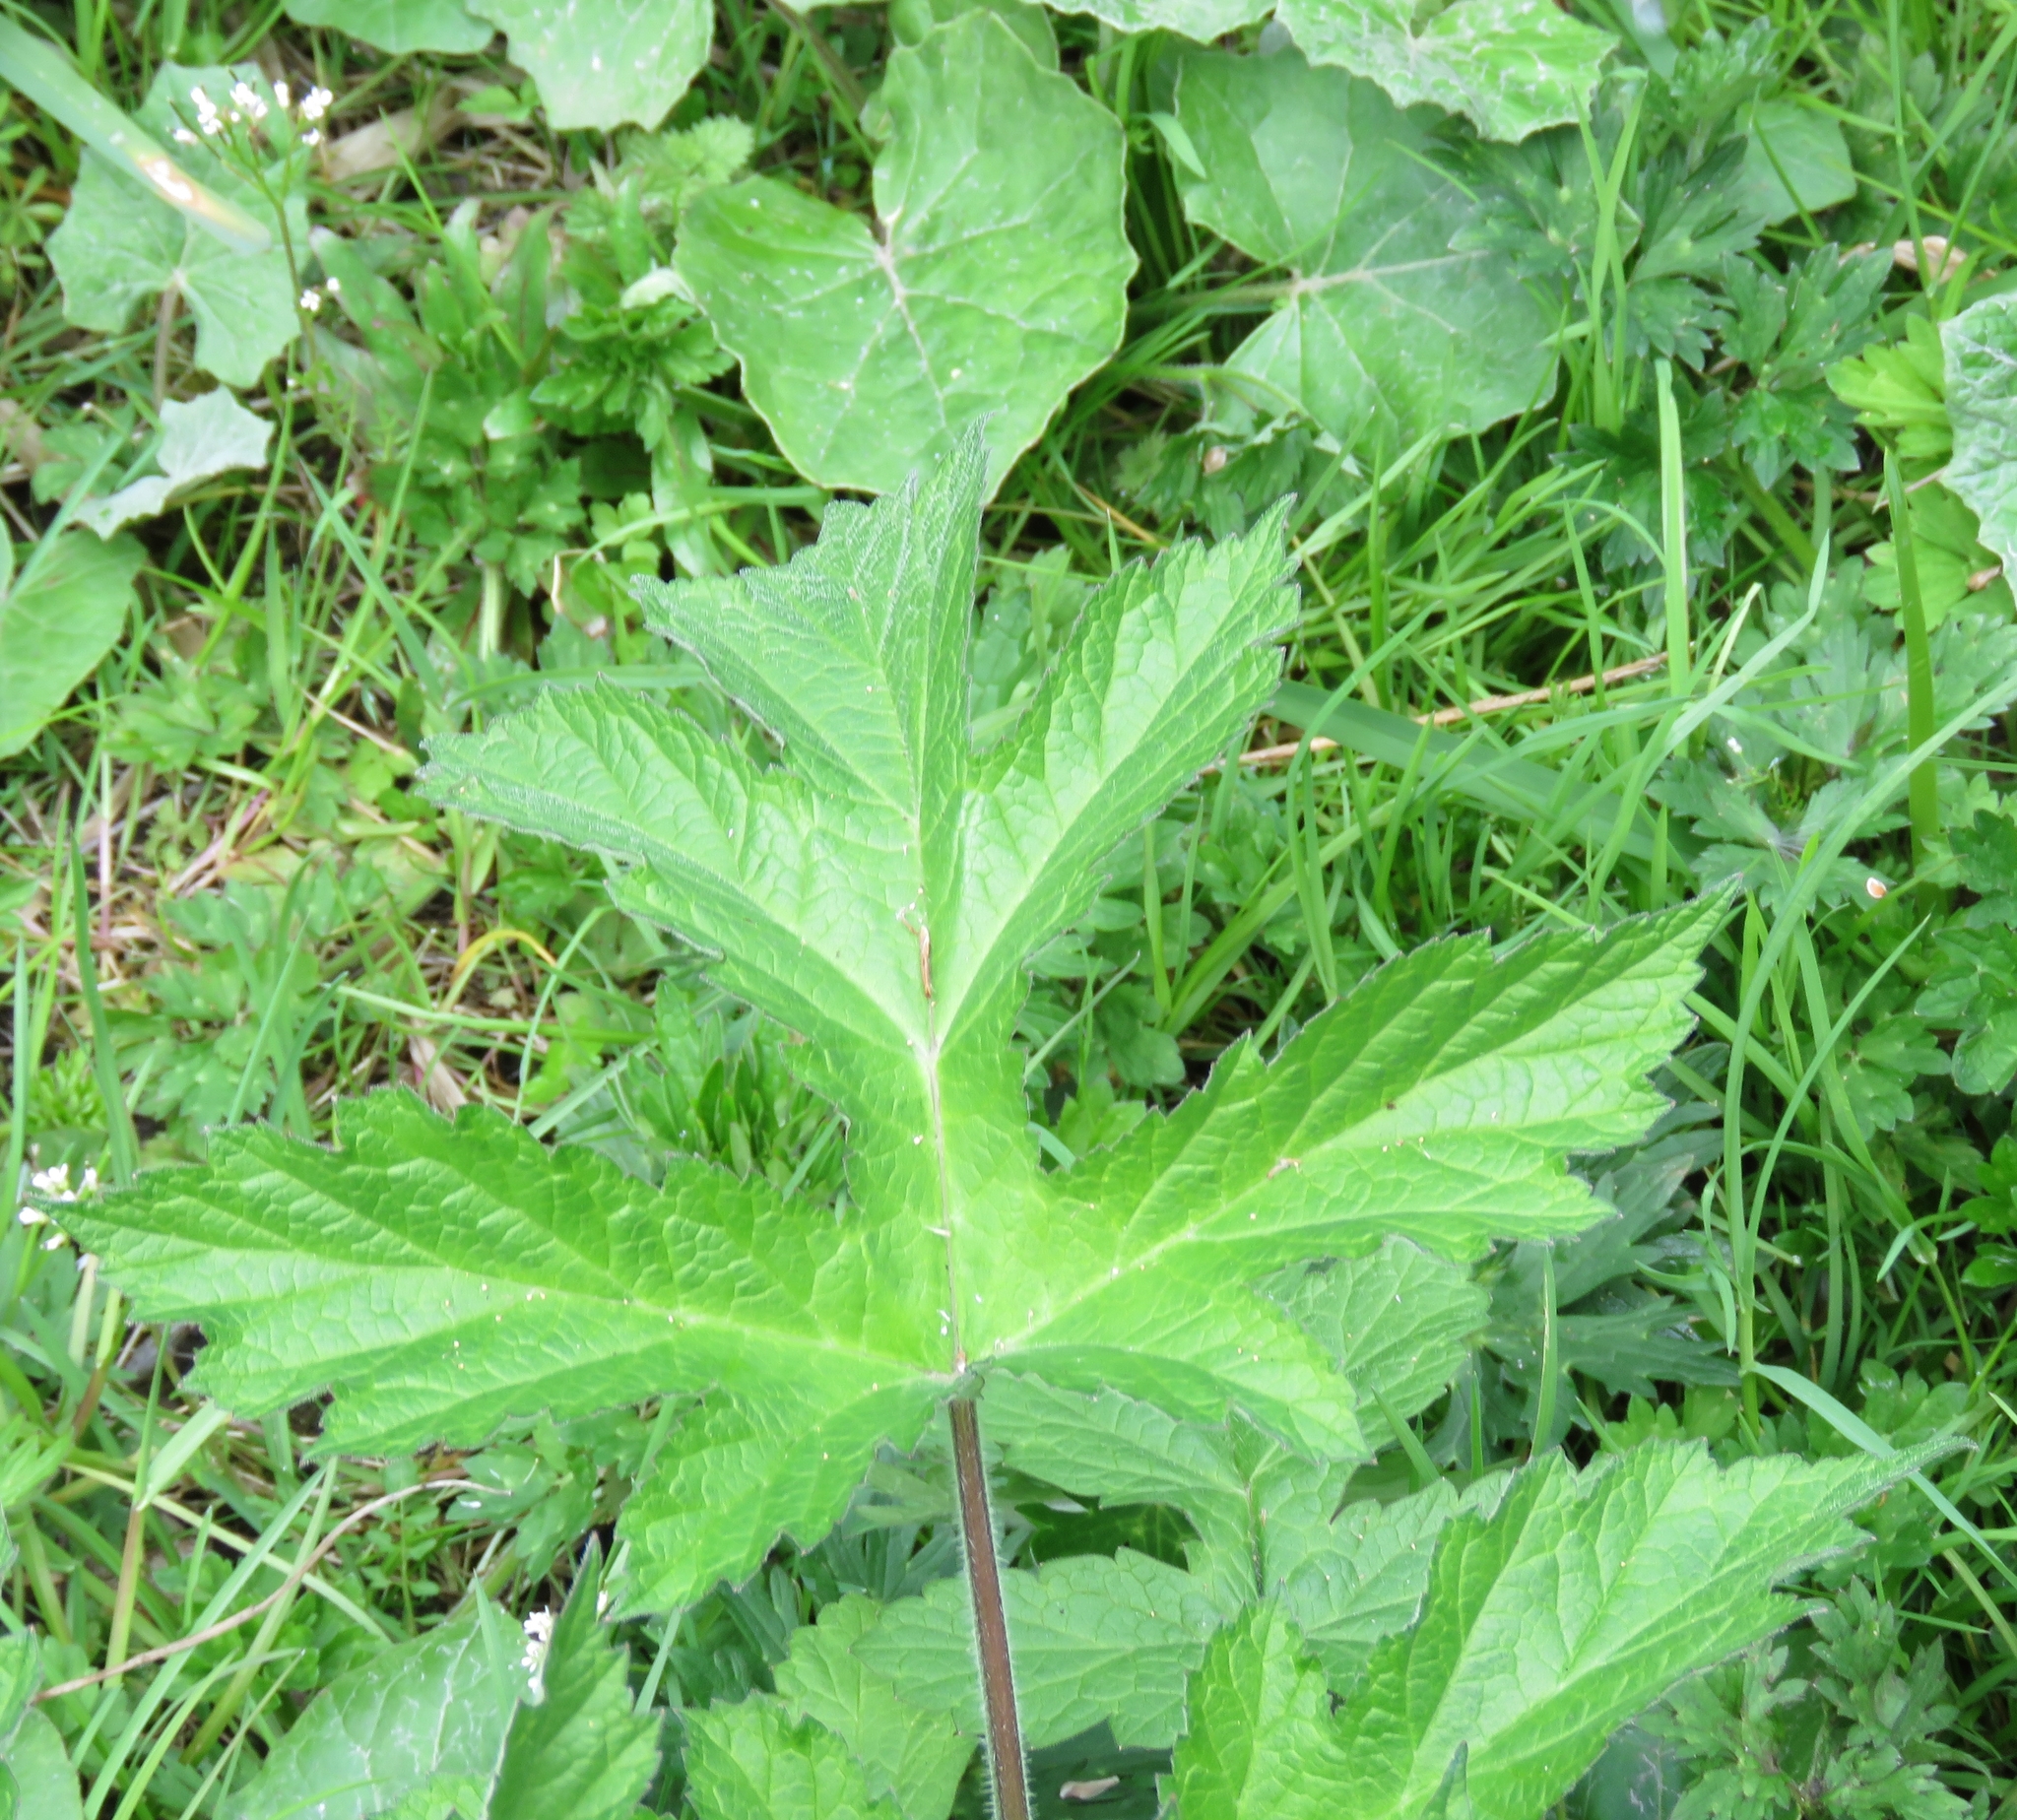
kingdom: Plantae
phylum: Tracheophyta
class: Magnoliopsida
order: Apiales
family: Apiaceae
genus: Heracleum
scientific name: Heracleum sphondylium
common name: Hogweed
